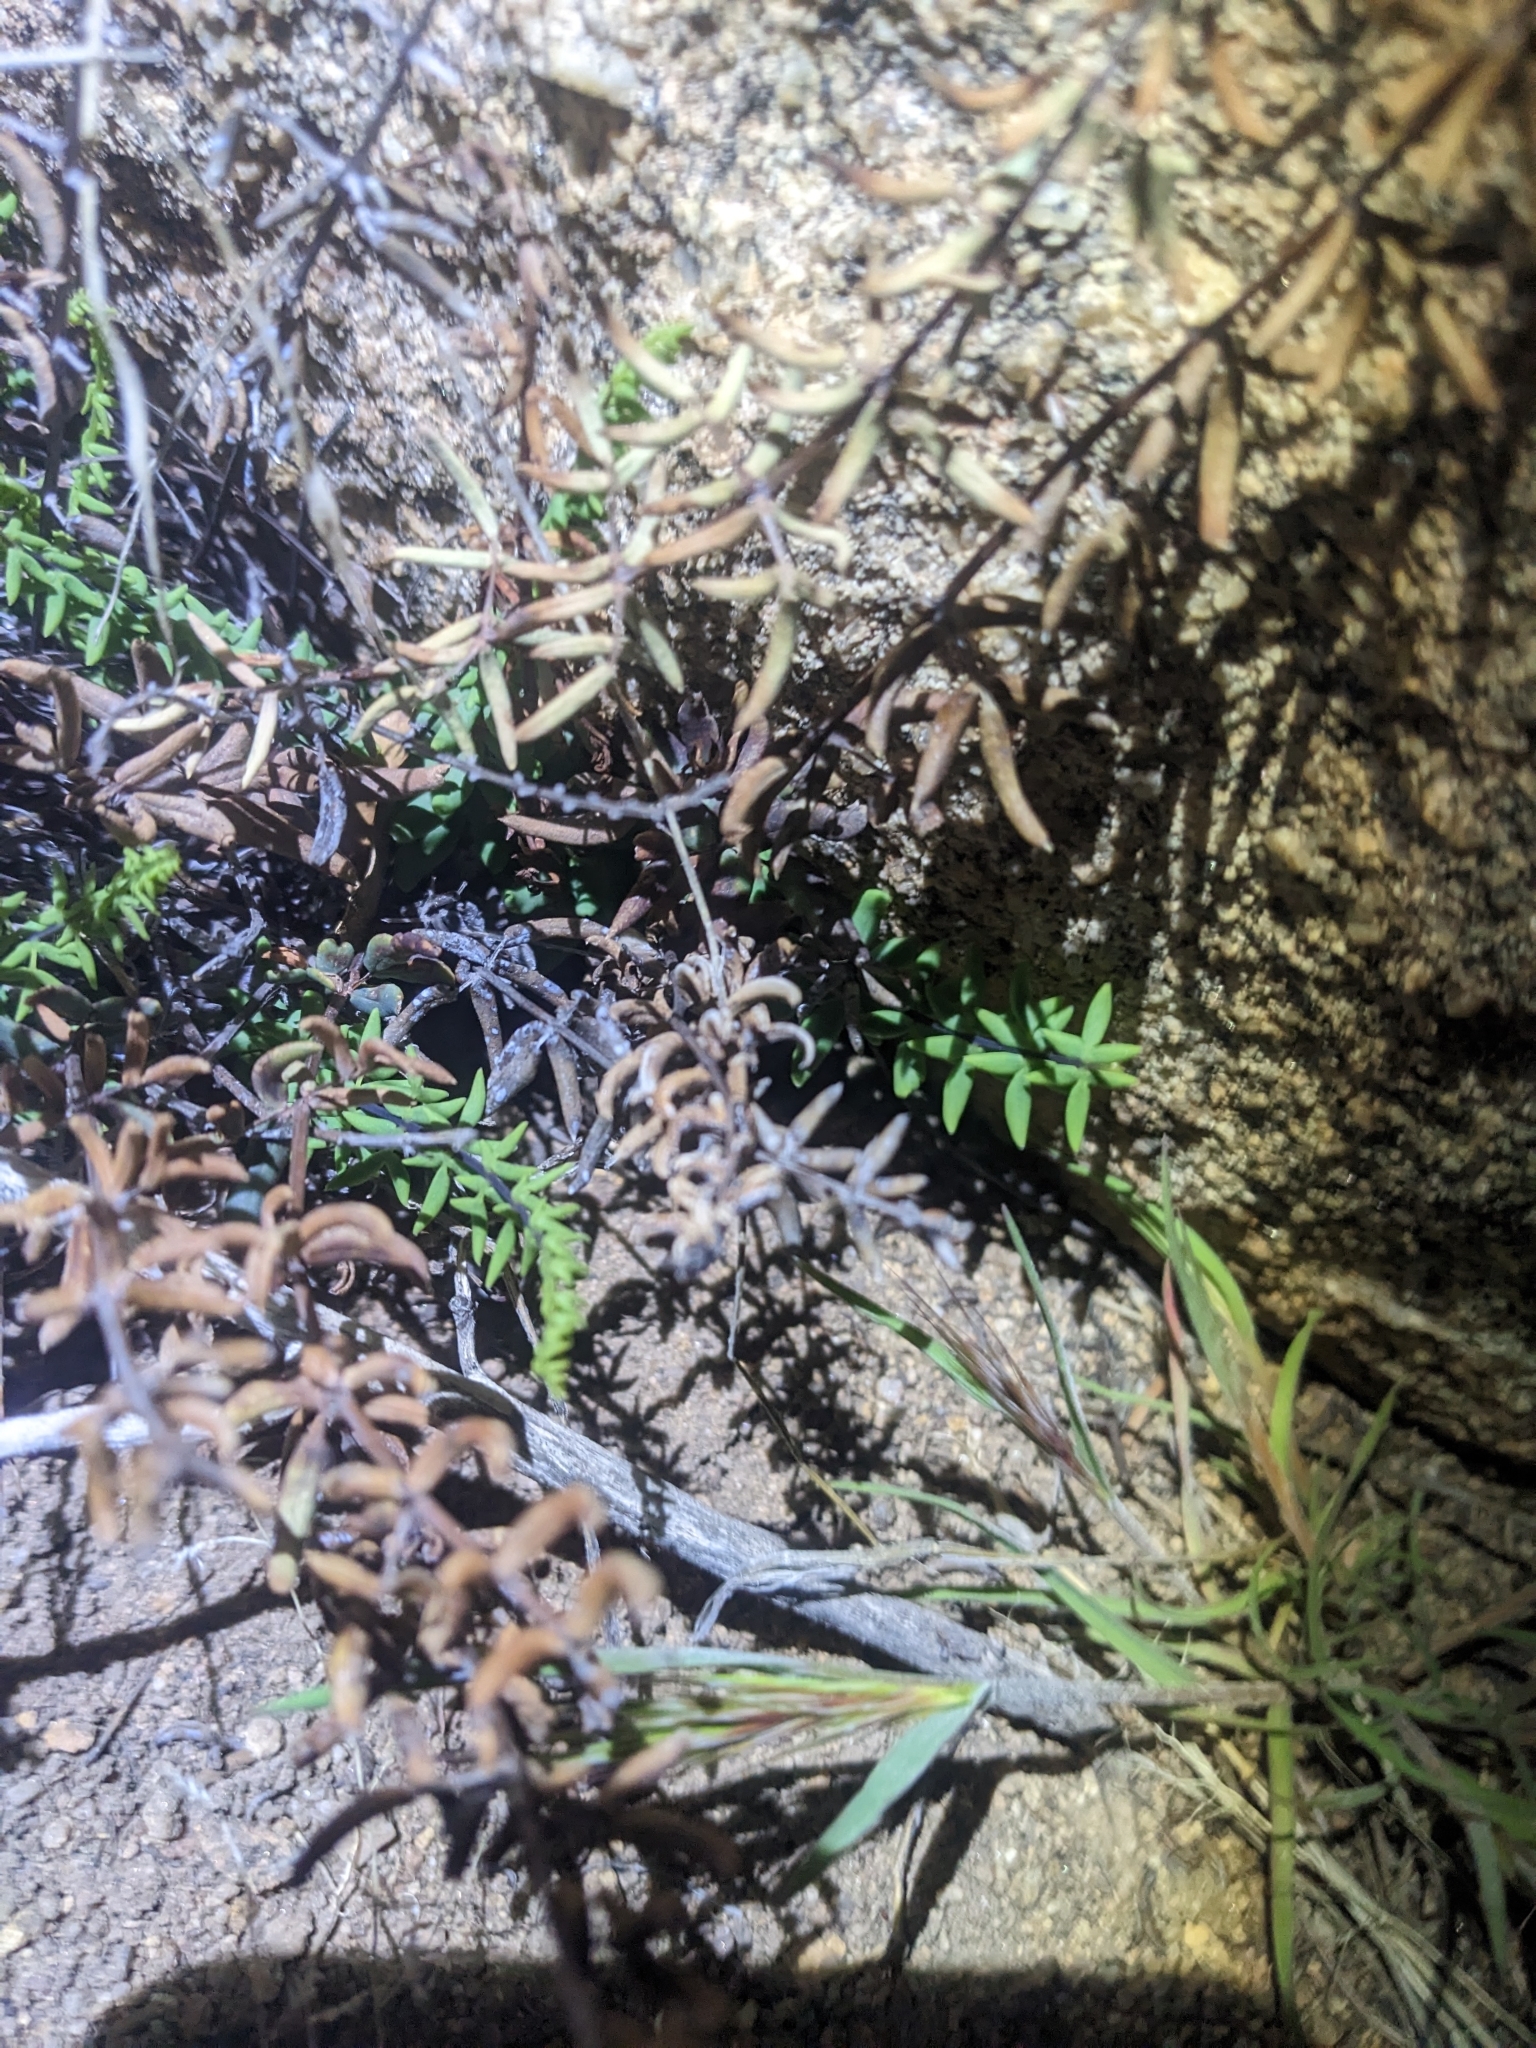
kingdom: Plantae
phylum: Tracheophyta
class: Polypodiopsida
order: Polypodiales
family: Pteridaceae
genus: Pellaea
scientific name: Pellaea wrightiana
